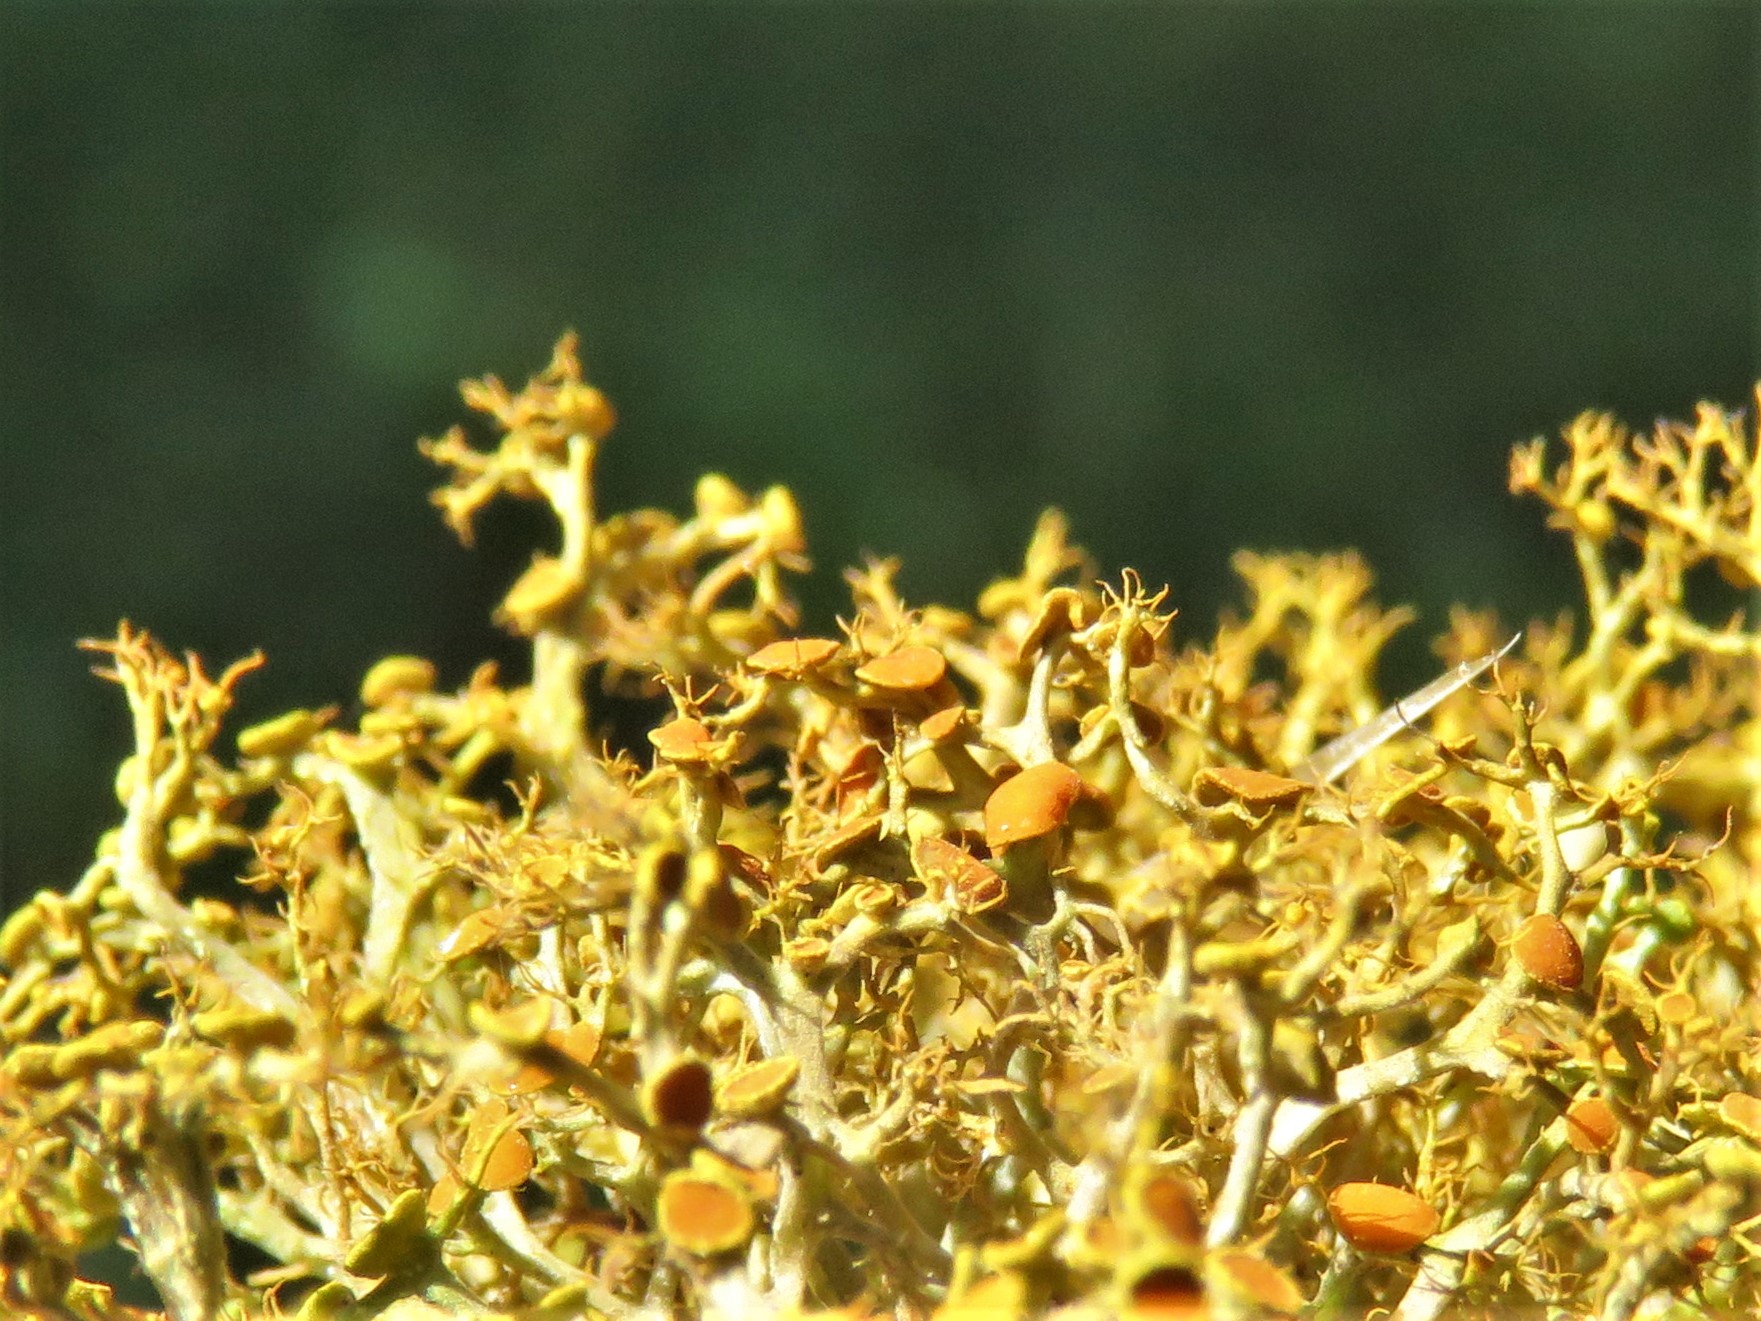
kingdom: Fungi
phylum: Ascomycota
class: Lecanoromycetes
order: Teloschistales
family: Teloschistaceae
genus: Teloschistes
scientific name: Teloschistes exilis
